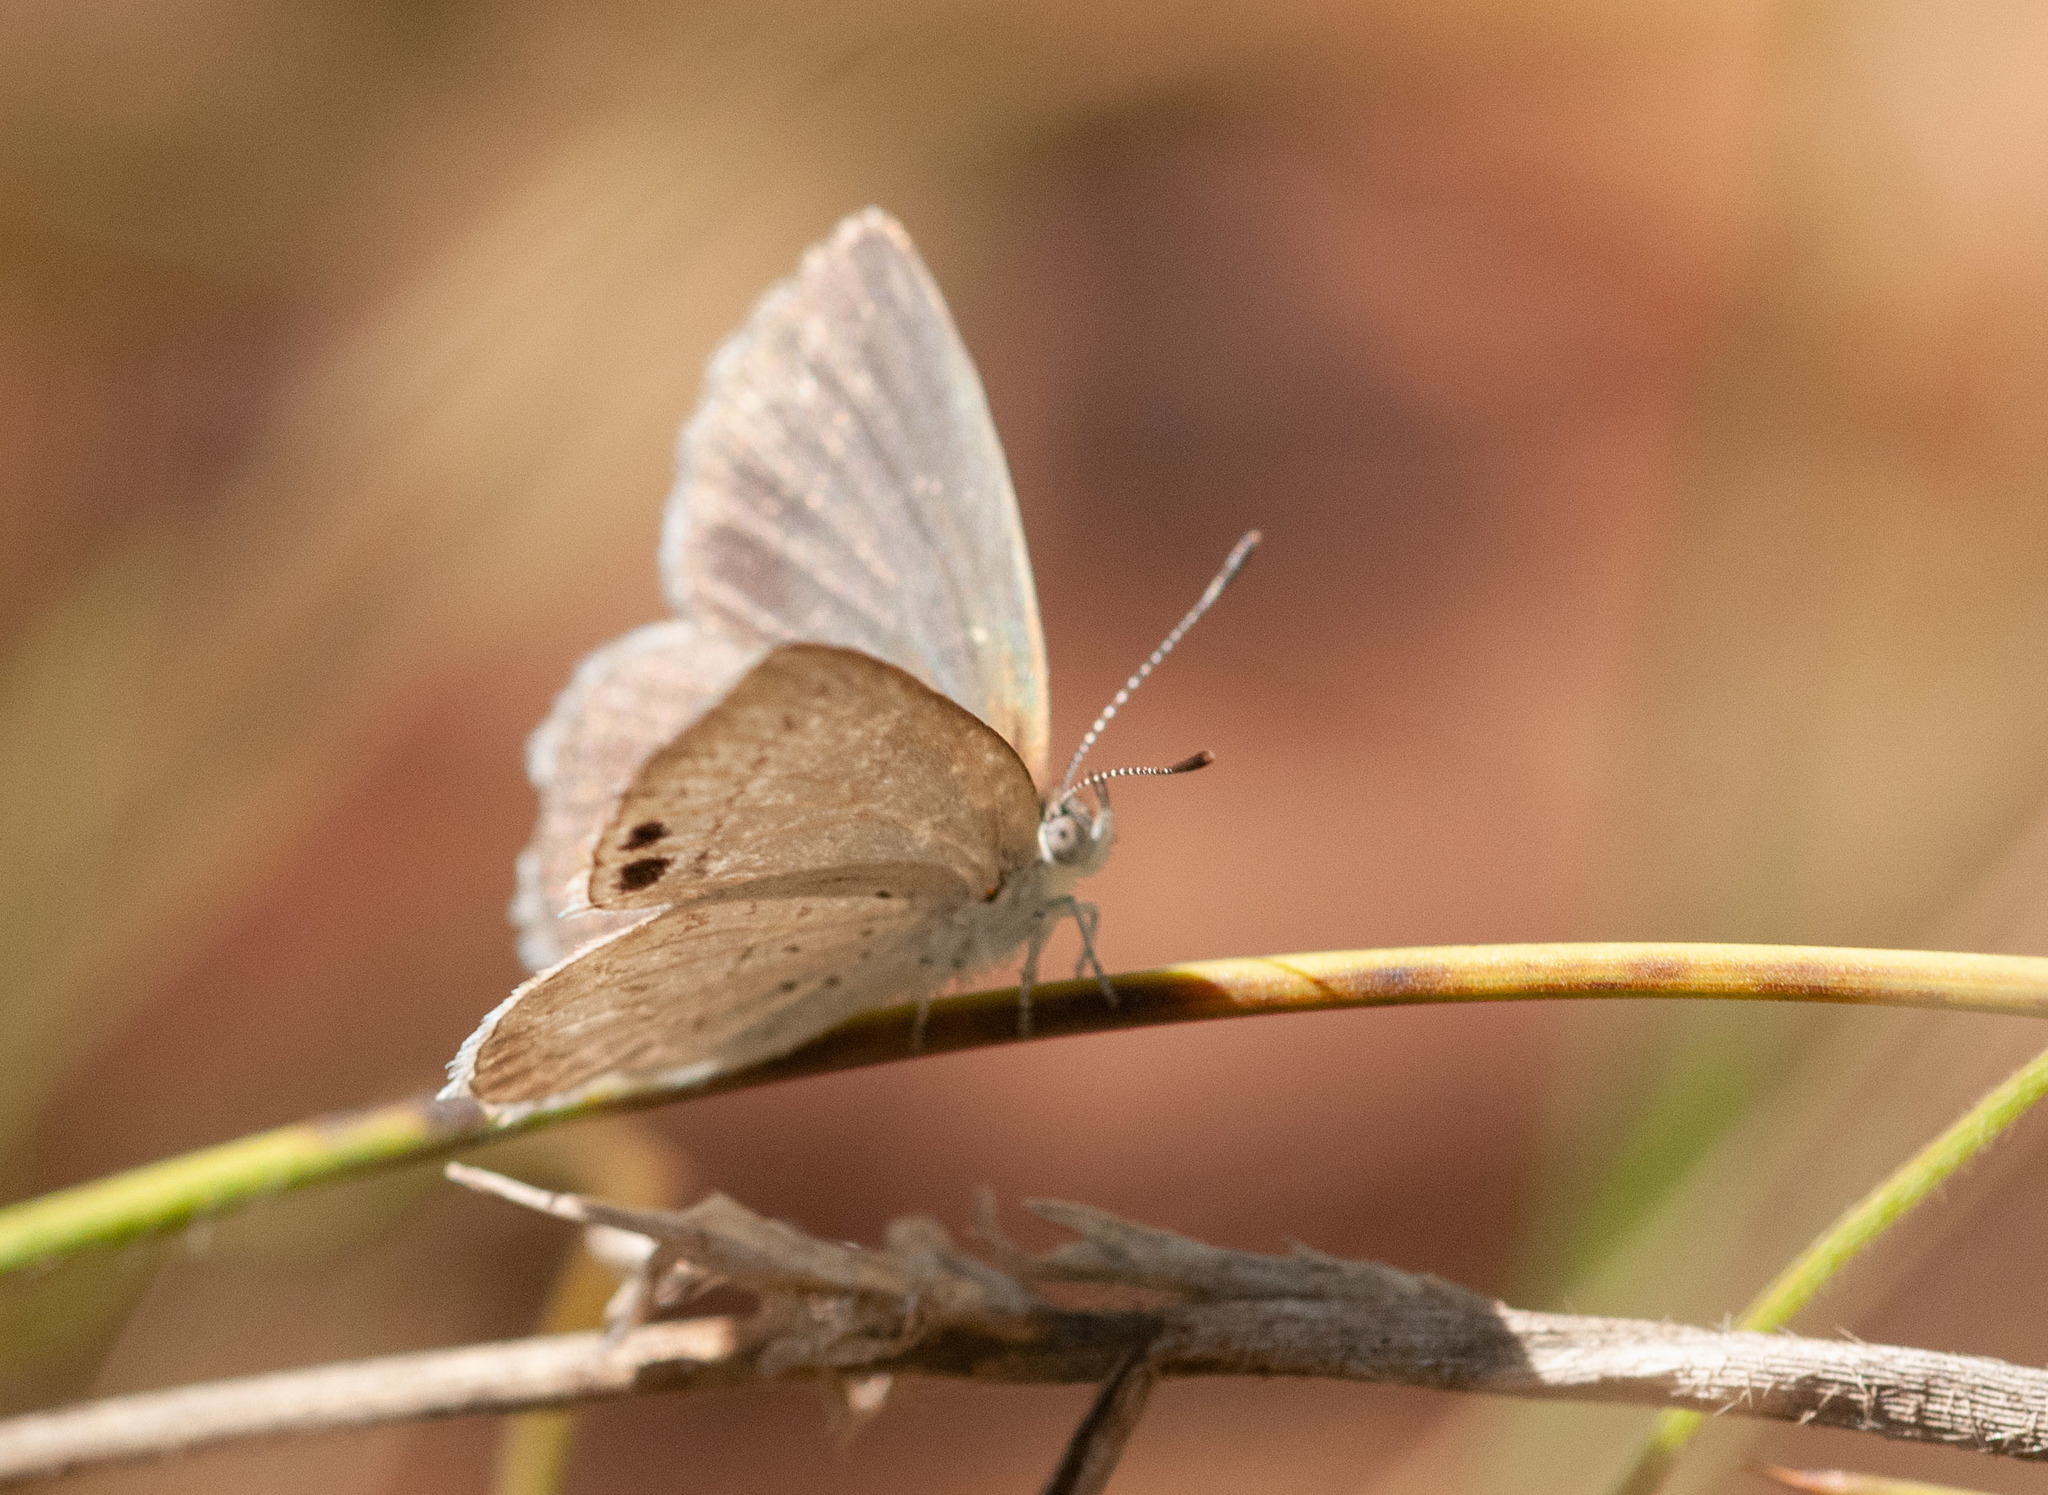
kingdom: Animalia
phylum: Arthropoda
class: Insecta
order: Lepidoptera
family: Lycaenidae
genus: Candalides
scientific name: Candalides
